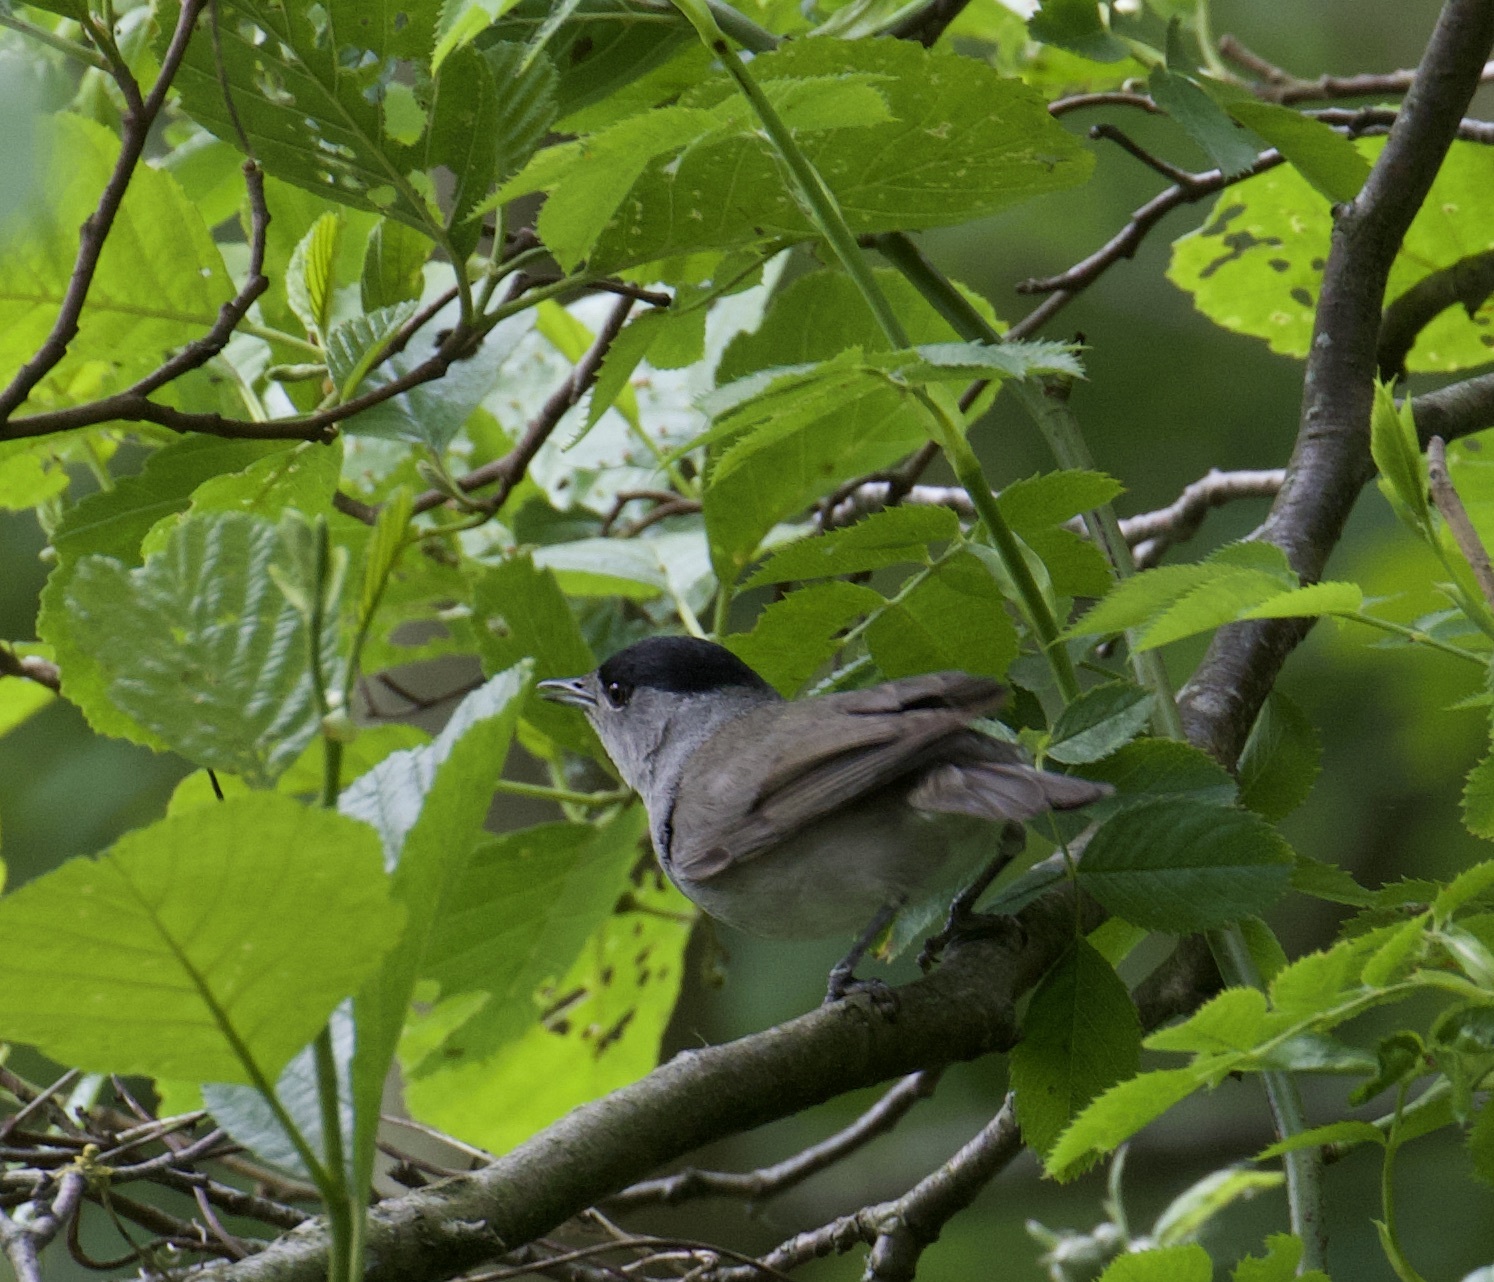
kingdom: Animalia
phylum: Chordata
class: Aves
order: Passeriformes
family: Sylviidae
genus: Sylvia
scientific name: Sylvia atricapilla
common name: Eurasian blackcap
